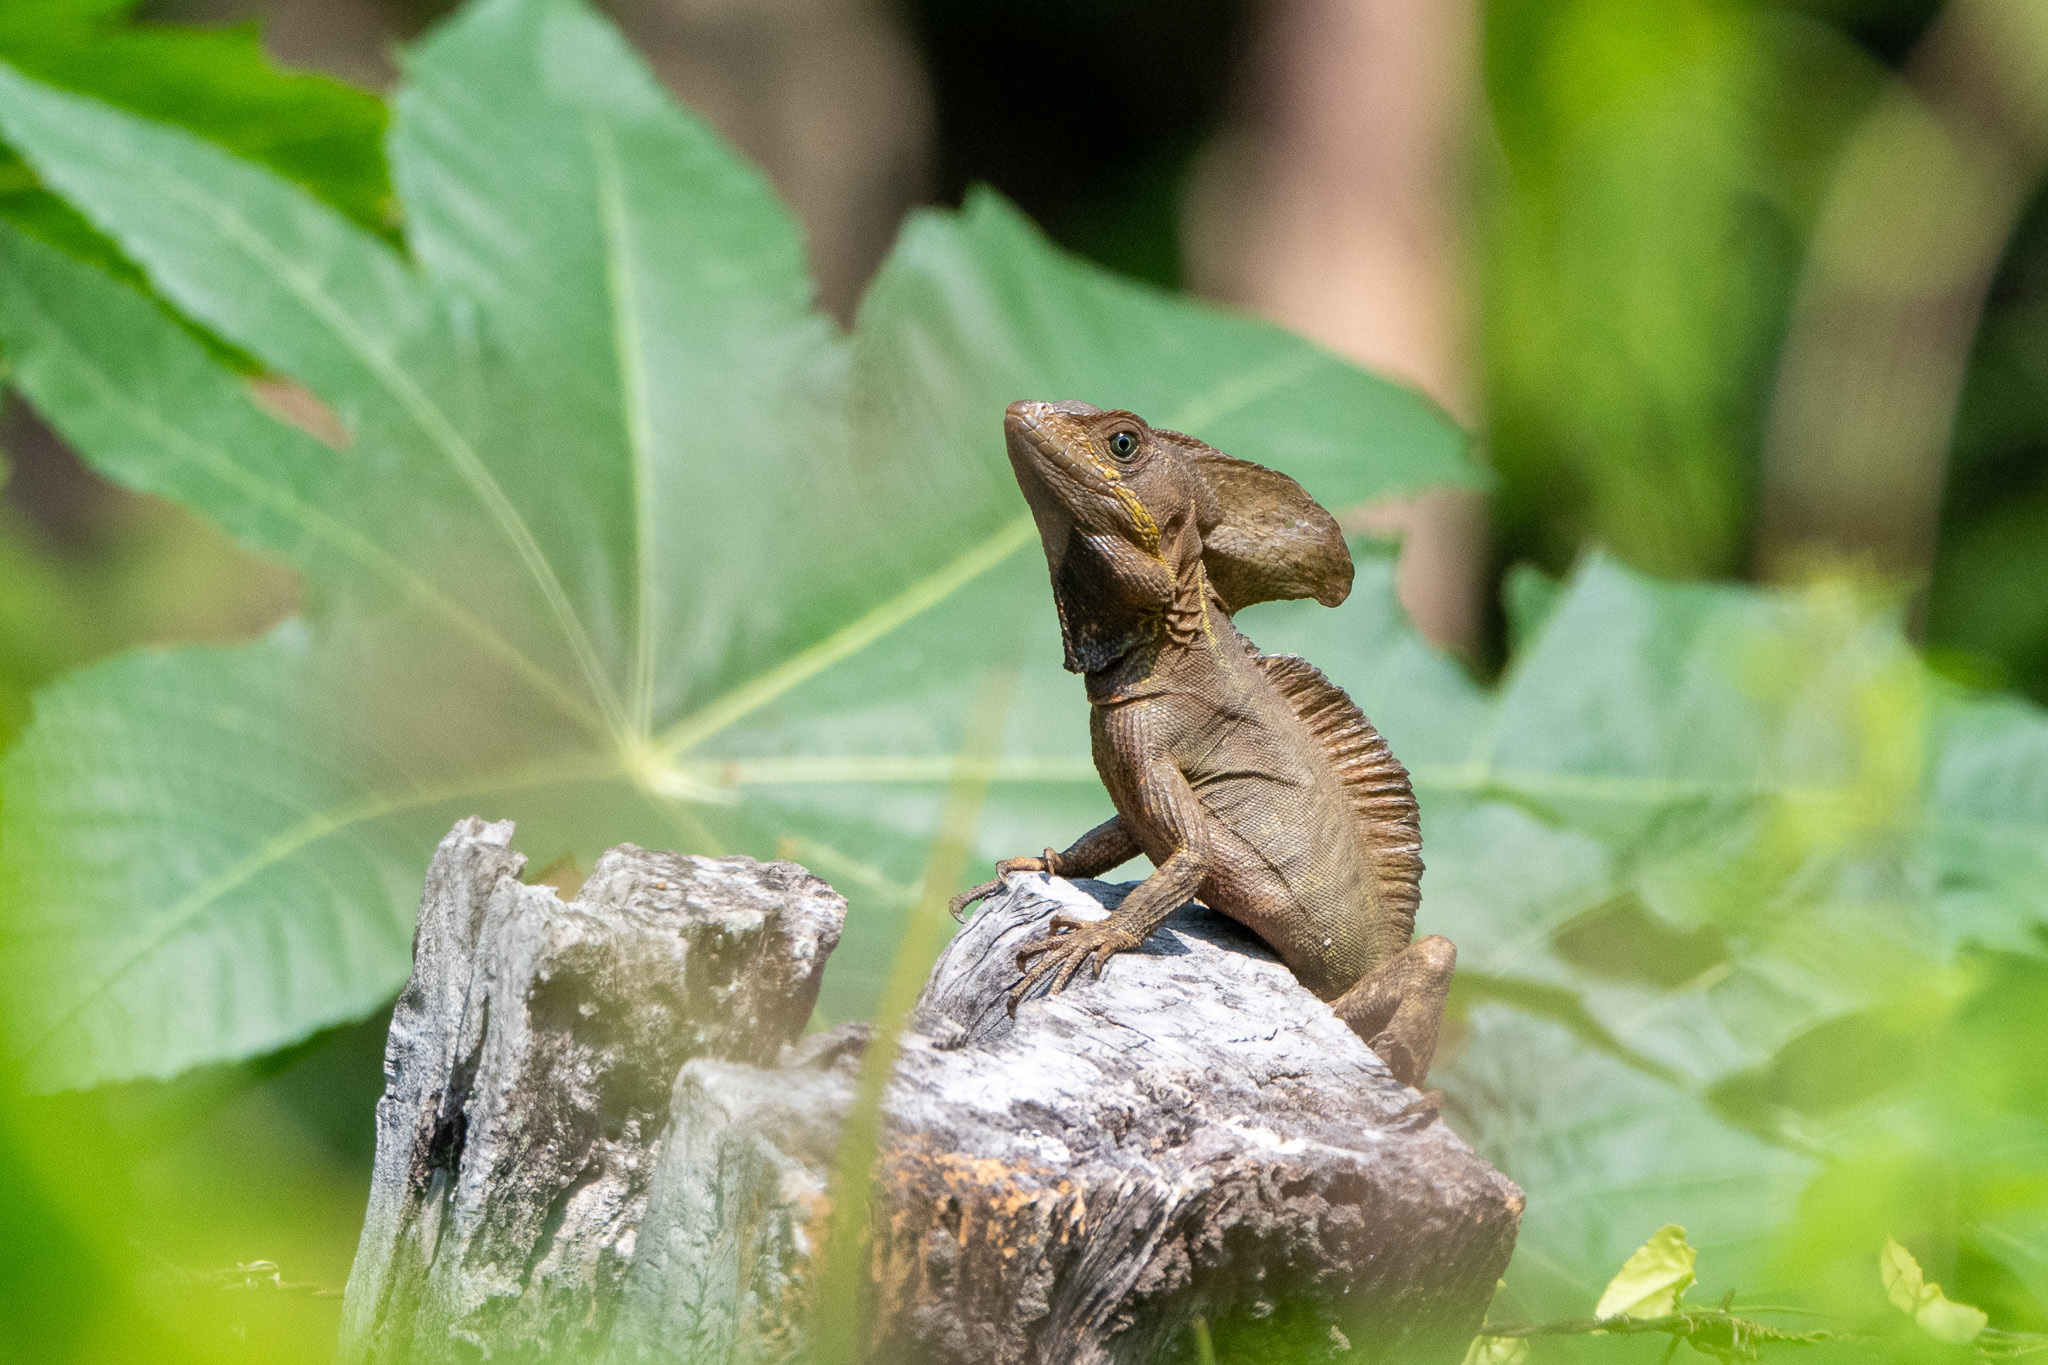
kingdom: Animalia
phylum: Chordata
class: Squamata
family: Corytophanidae
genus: Basiliscus
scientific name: Basiliscus vittatus
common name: Brown basilisk
